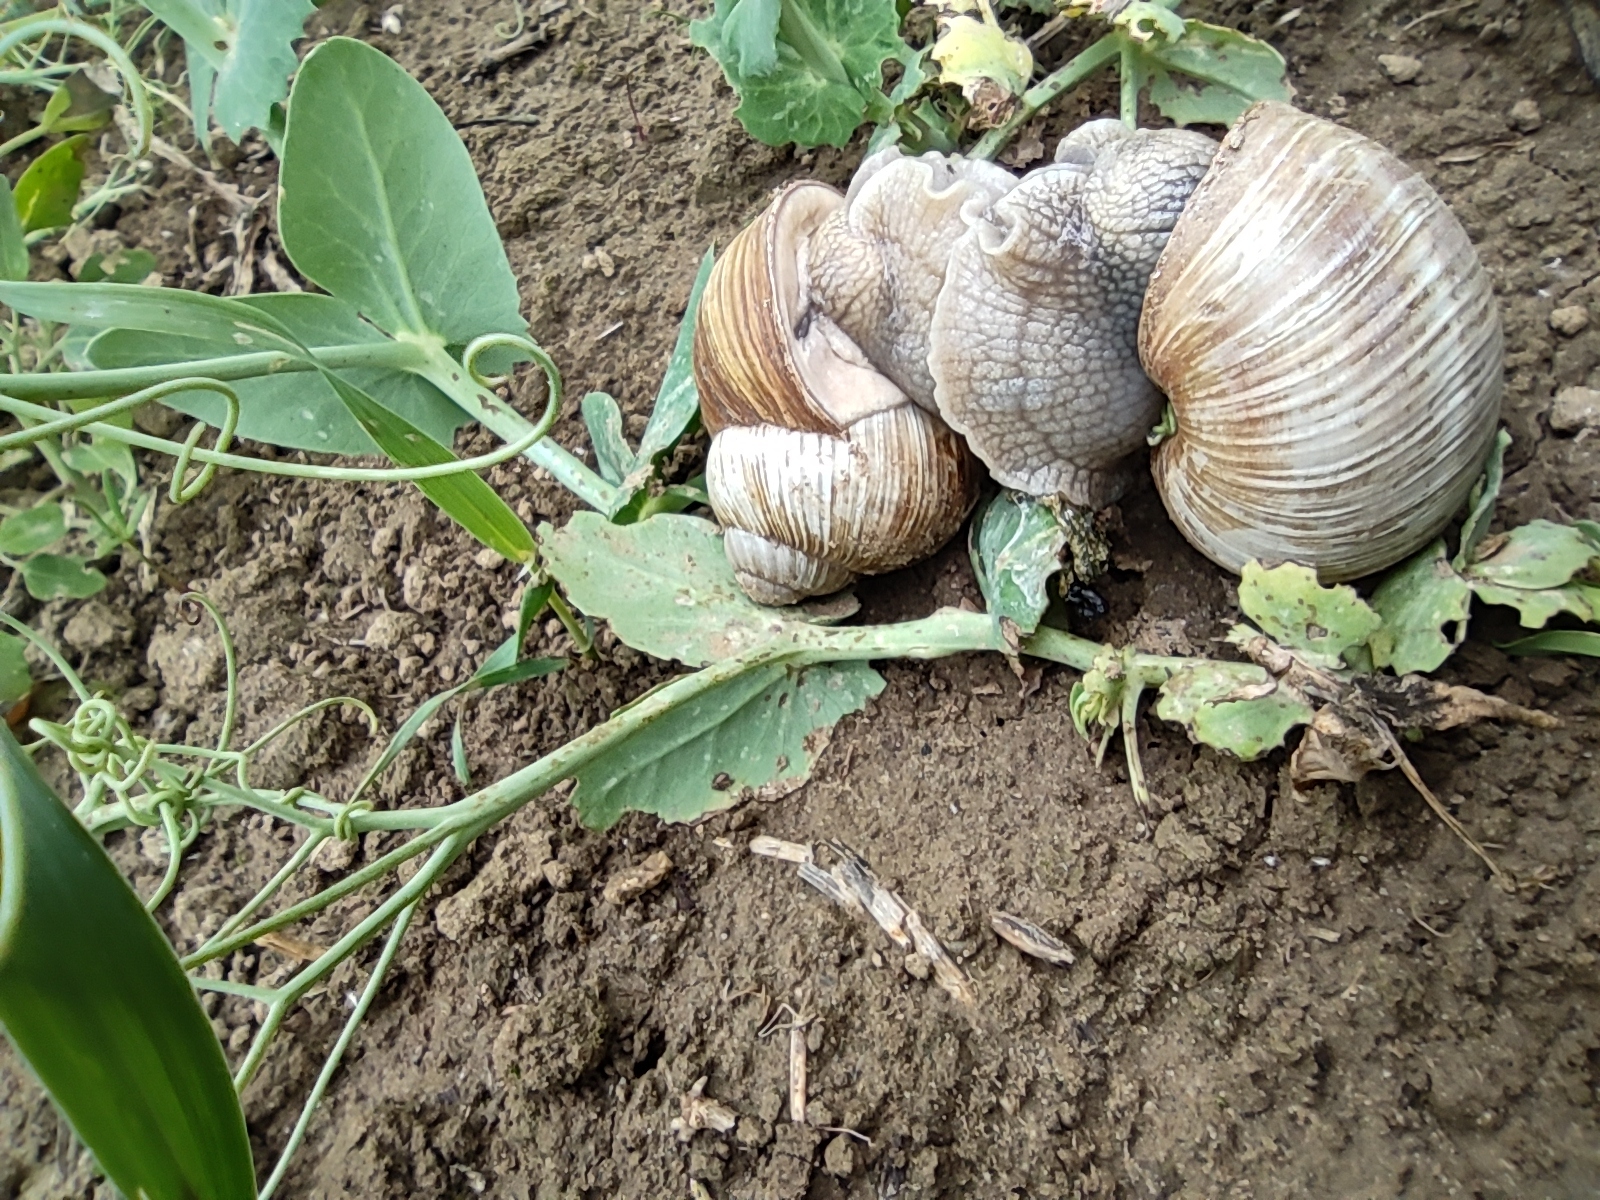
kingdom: Animalia
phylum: Mollusca
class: Gastropoda
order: Stylommatophora
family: Helicidae
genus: Helix
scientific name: Helix pomatia
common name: Roman snail
